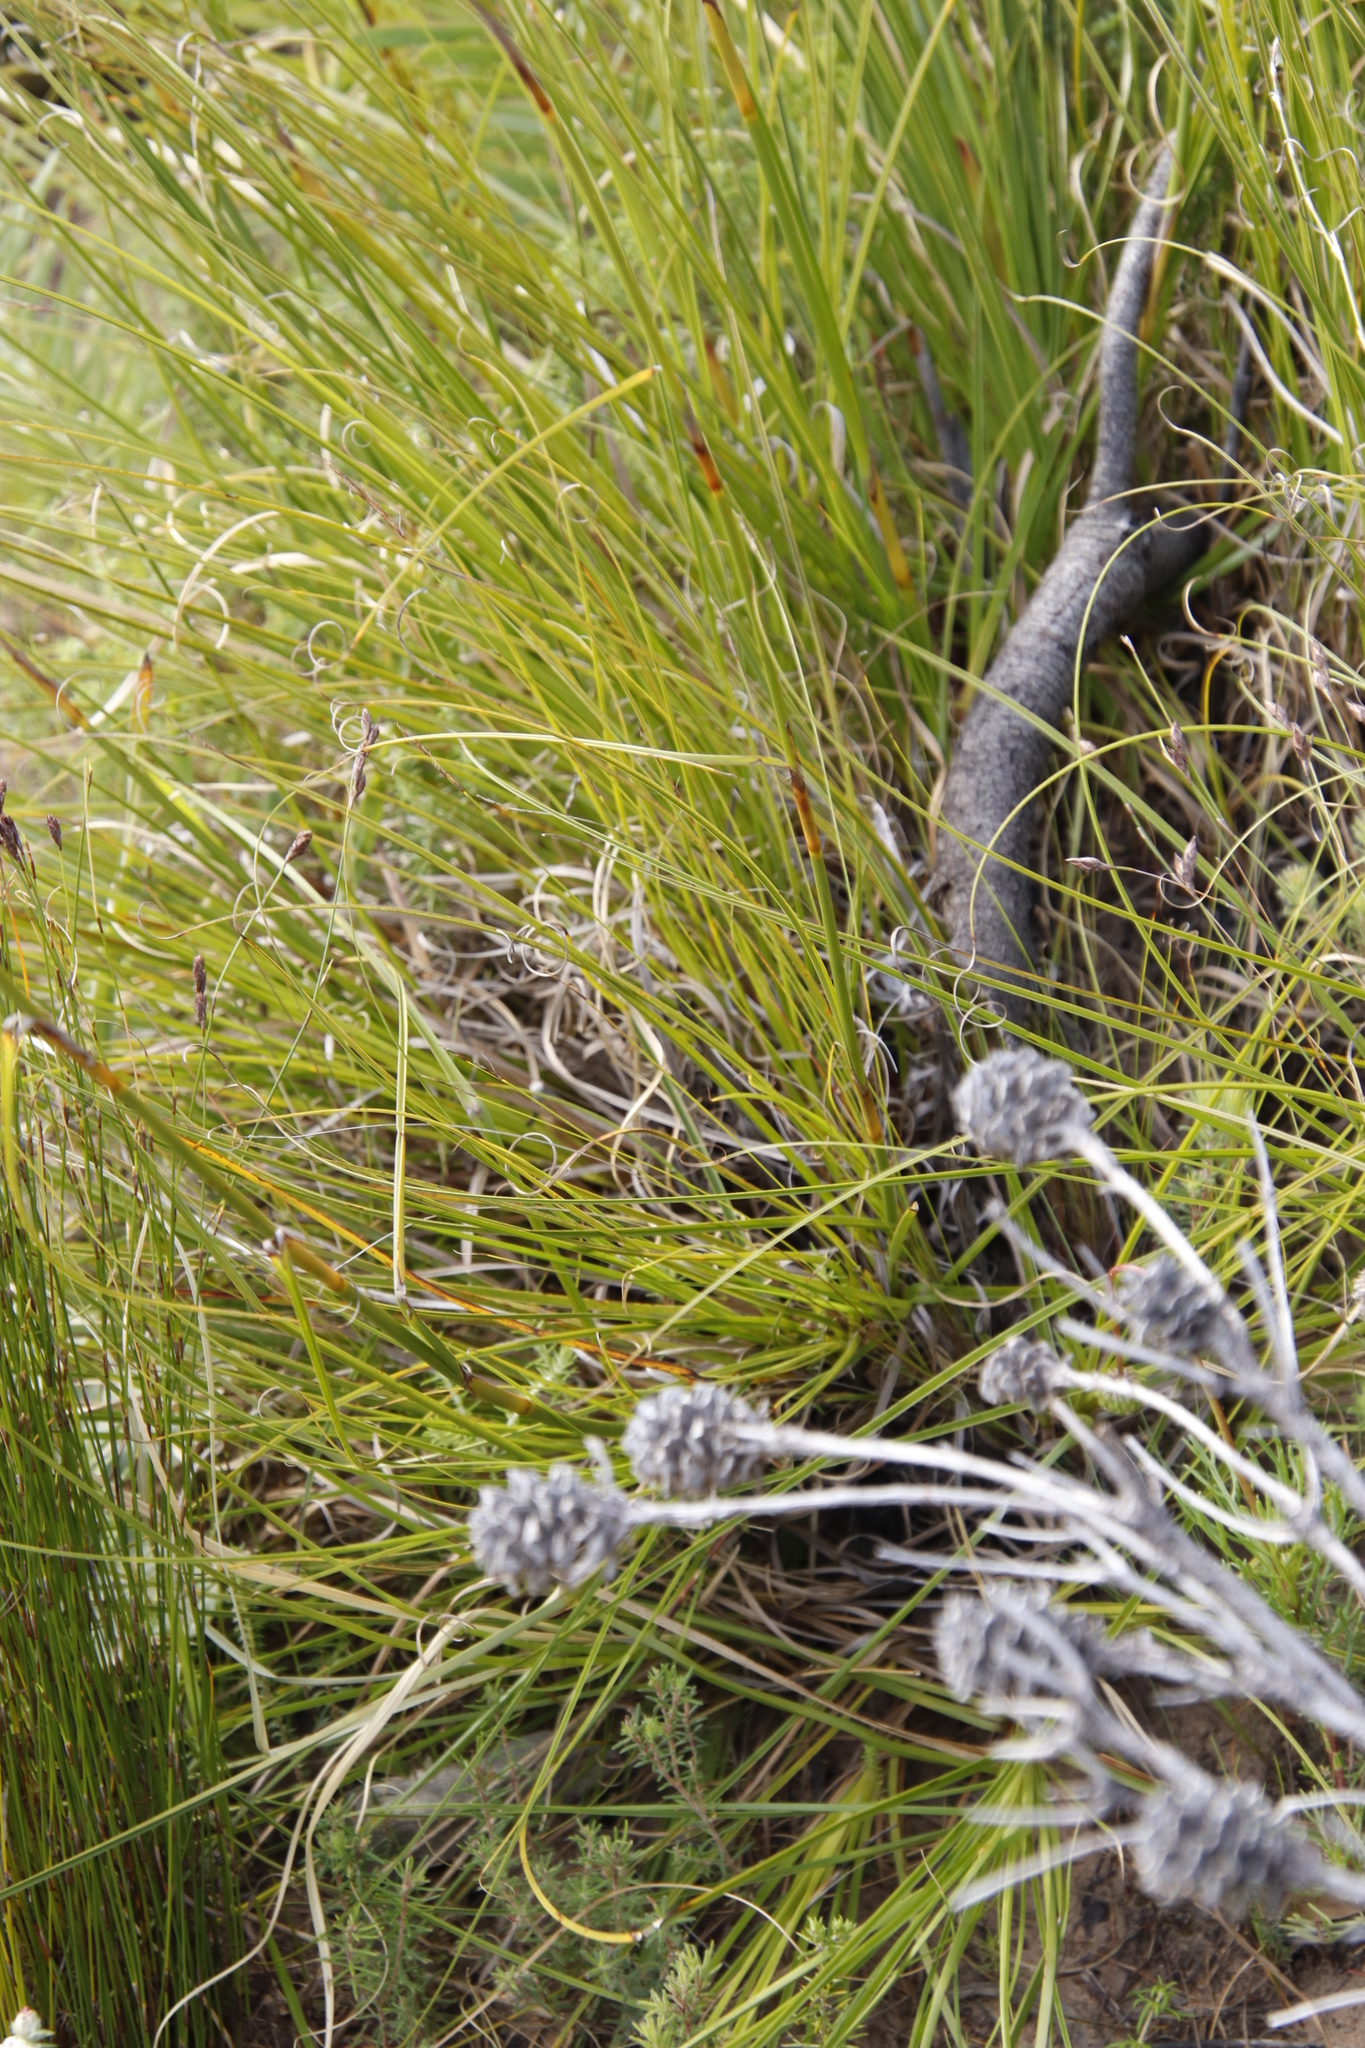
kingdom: Plantae
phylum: Tracheophyta
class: Liliopsida
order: Poales
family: Cyperaceae
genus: Tetraria
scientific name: Tetraria bromoides
